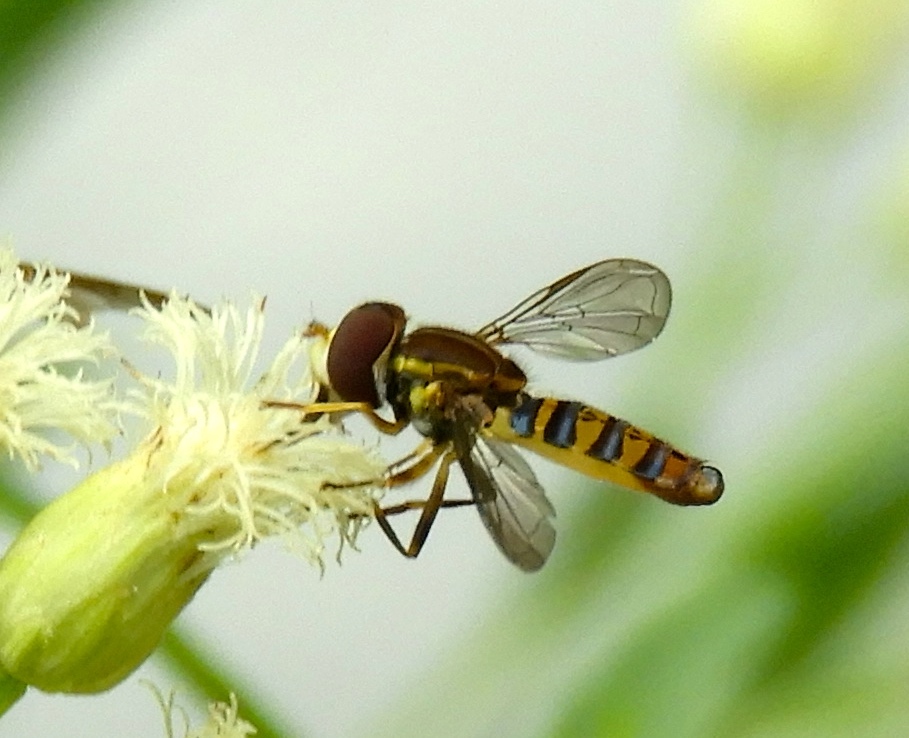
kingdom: Animalia
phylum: Arthropoda
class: Insecta
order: Diptera
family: Syrphidae
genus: Toxomerus
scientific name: Toxomerus
